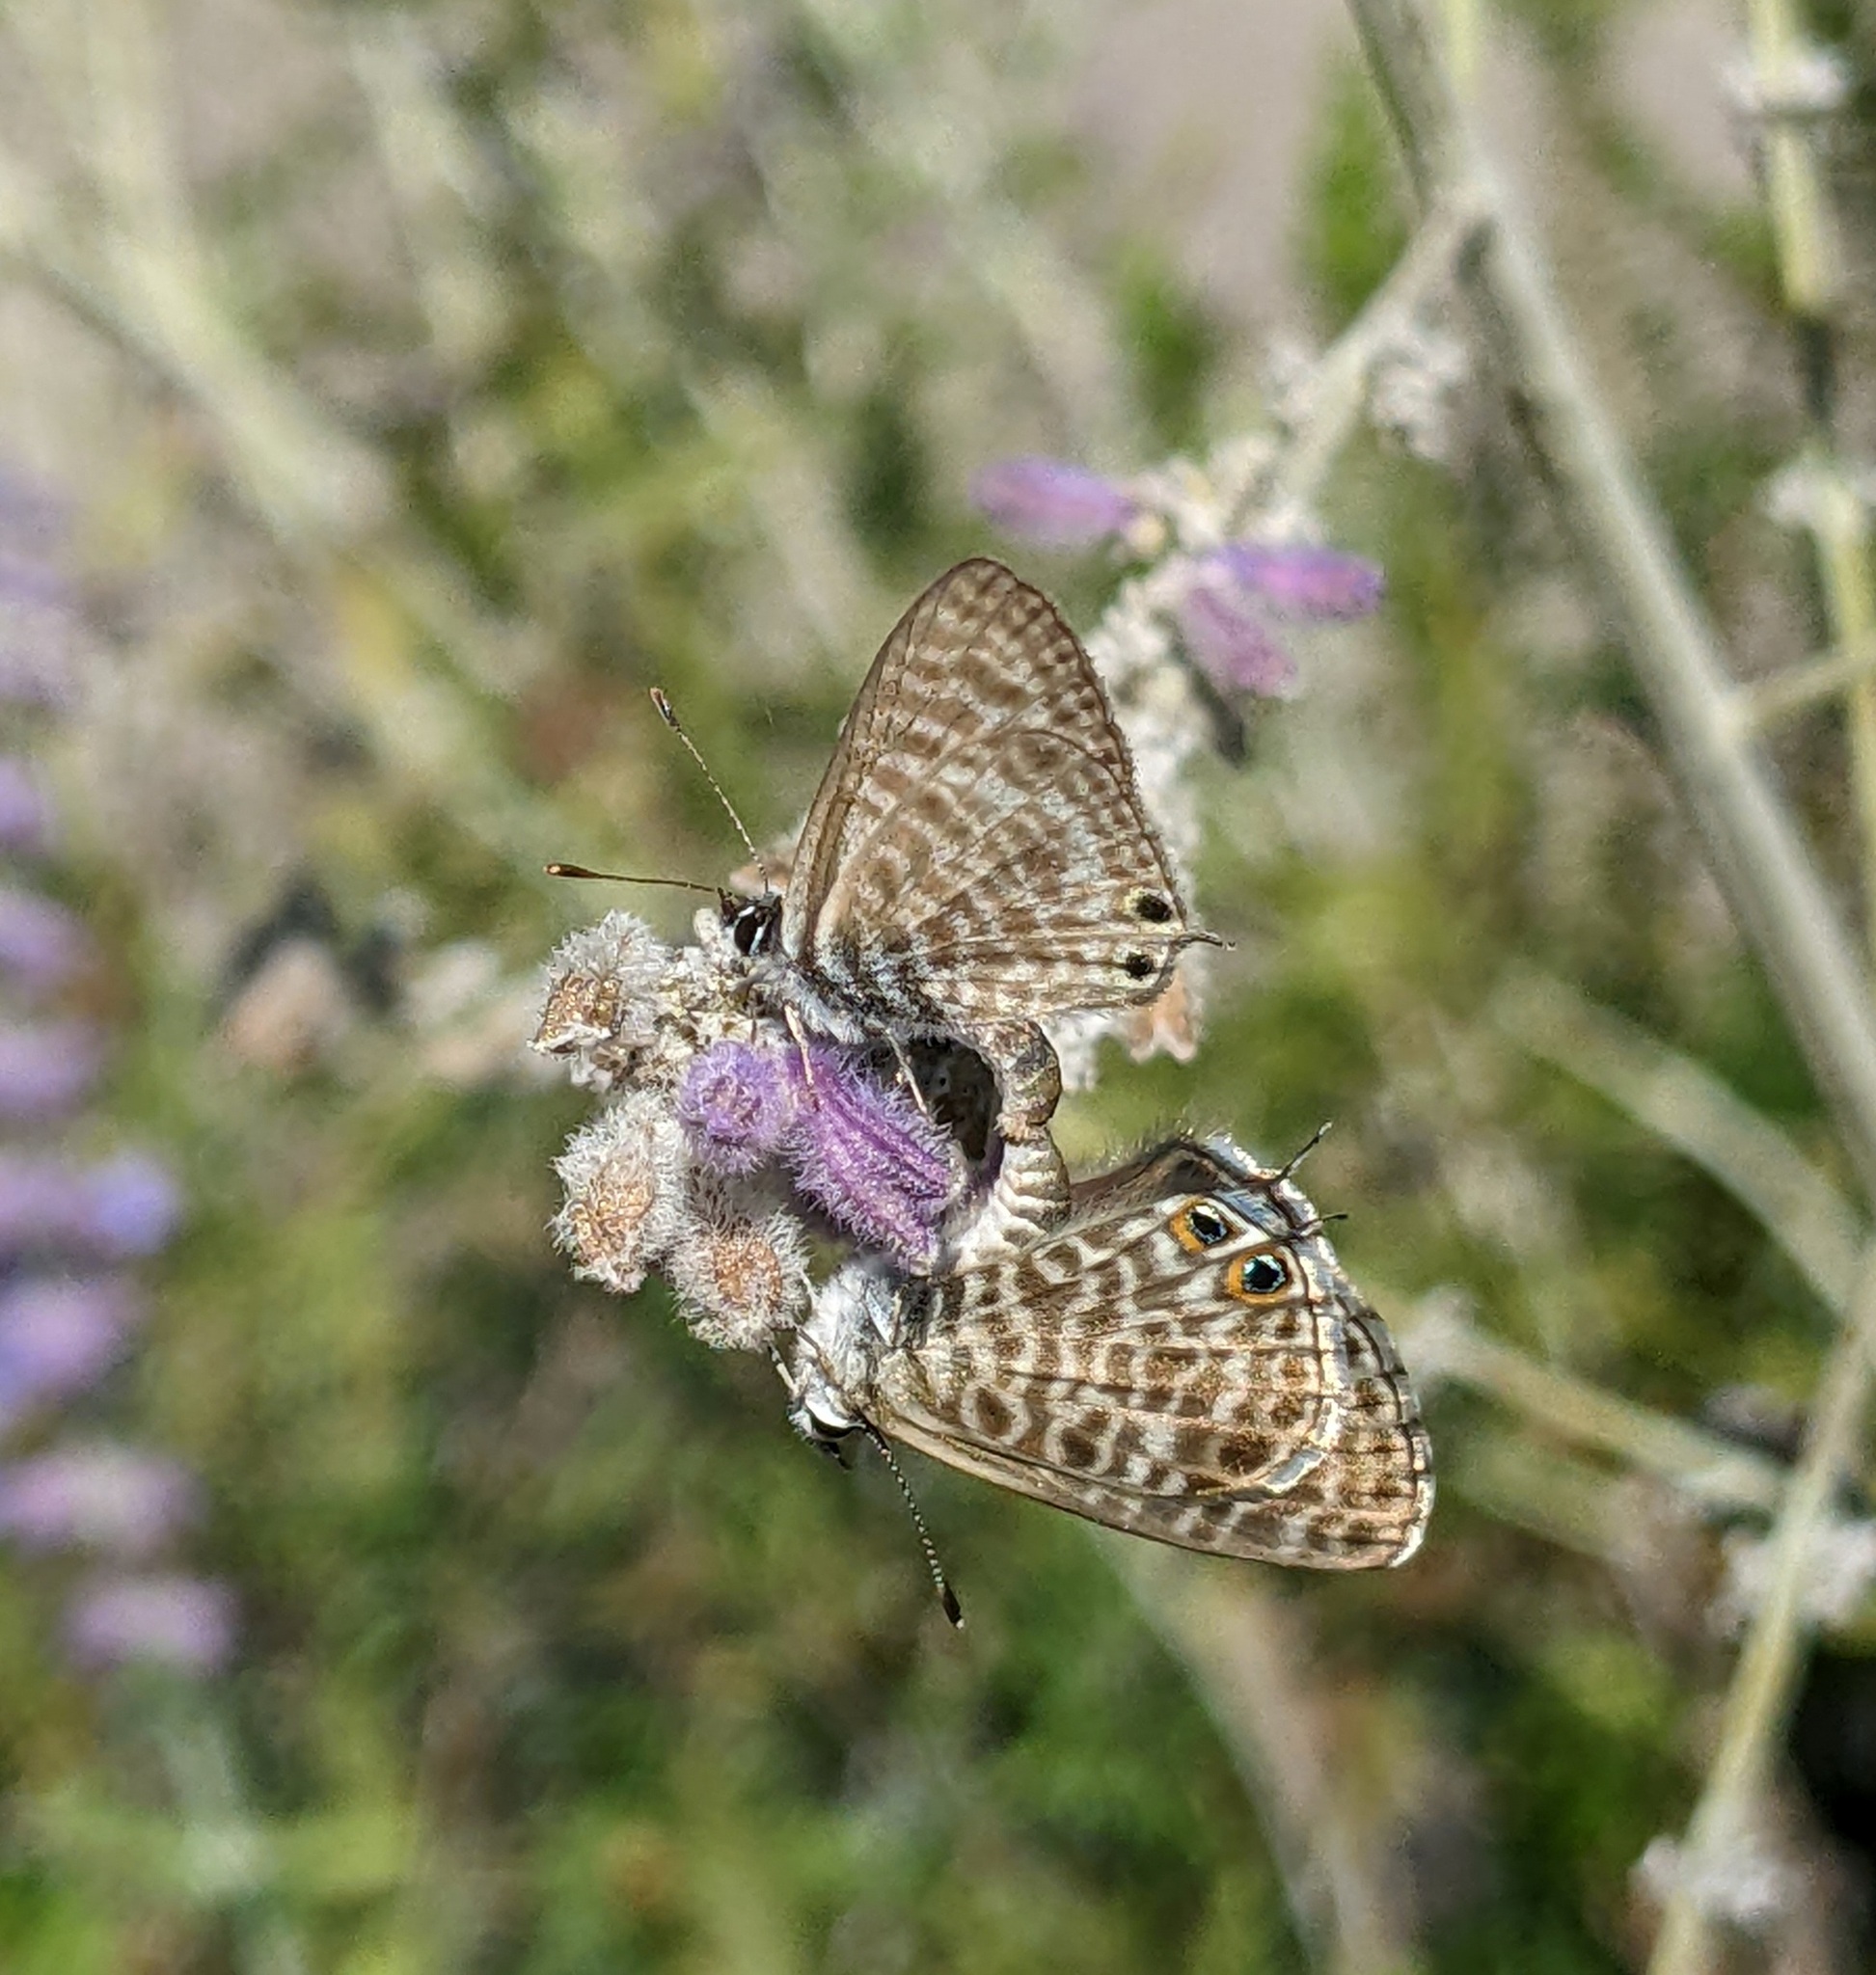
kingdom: Animalia
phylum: Arthropoda
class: Insecta
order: Lepidoptera
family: Lycaenidae
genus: Leptotes
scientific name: Leptotes pirithous
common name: Lang's short-tailed blue
